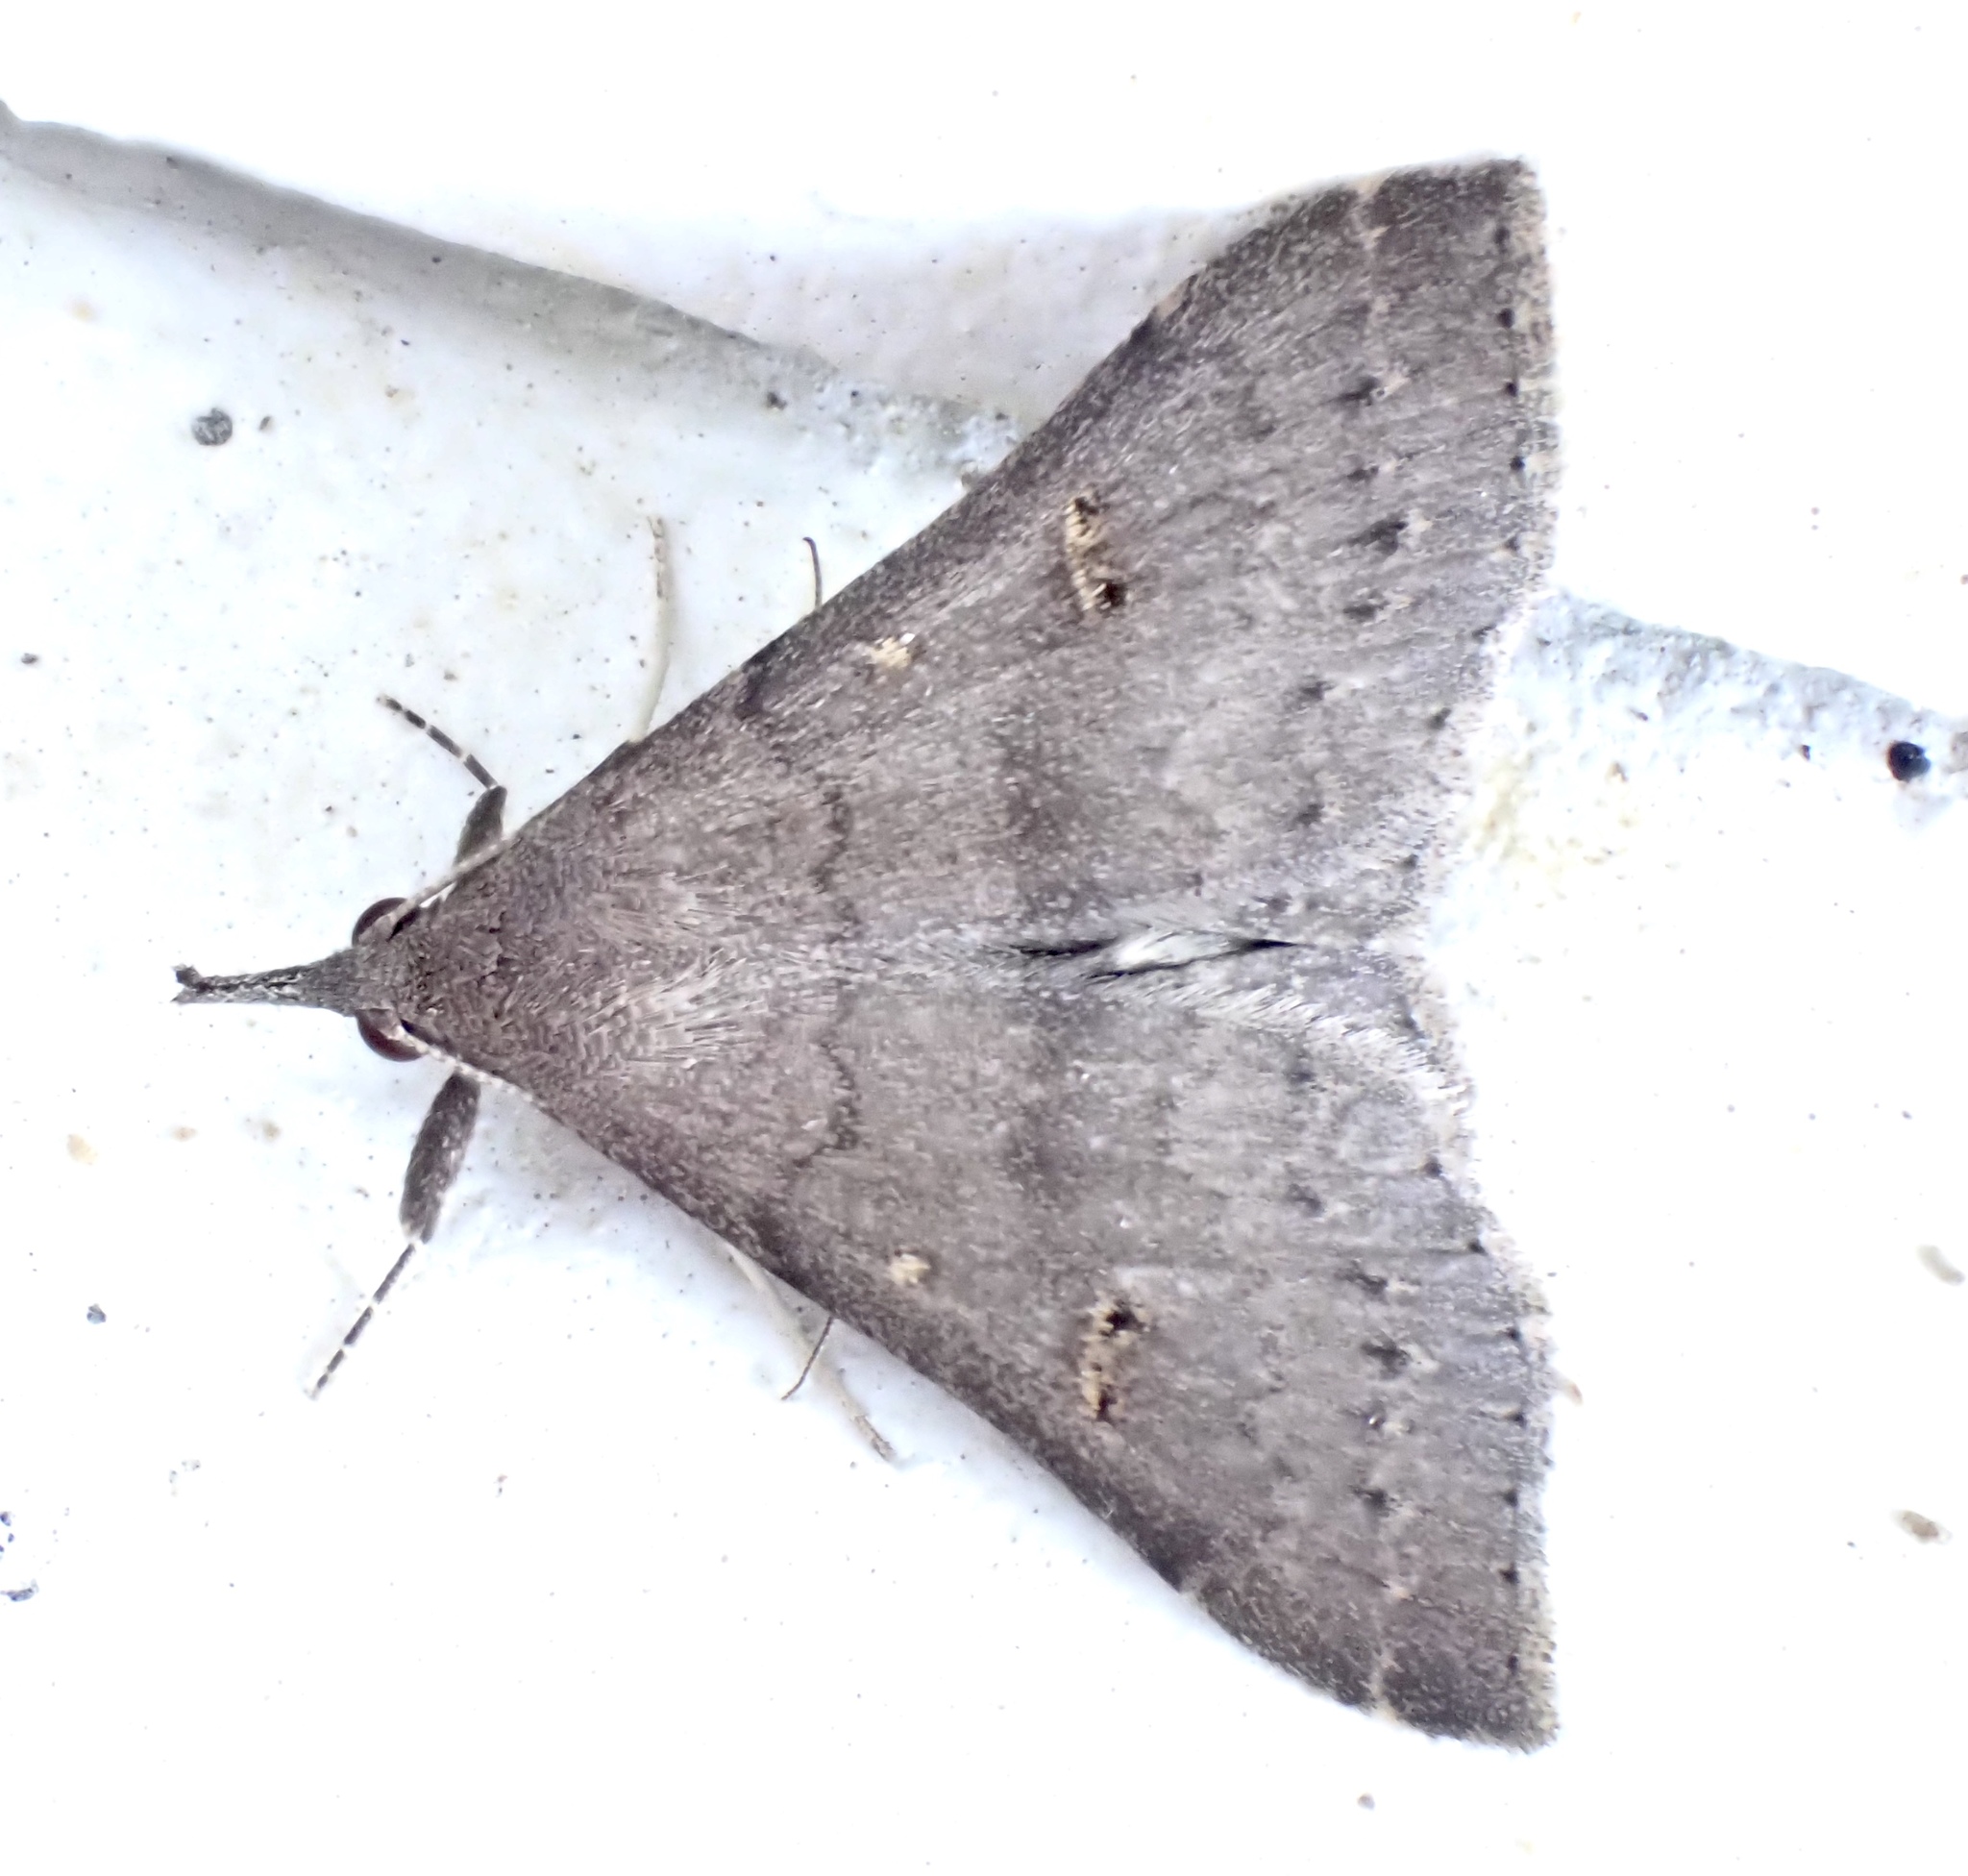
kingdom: Animalia
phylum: Arthropoda
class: Insecta
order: Lepidoptera
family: Erebidae
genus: Renia
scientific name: Renia adspergillus
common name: Speckled renia moth
